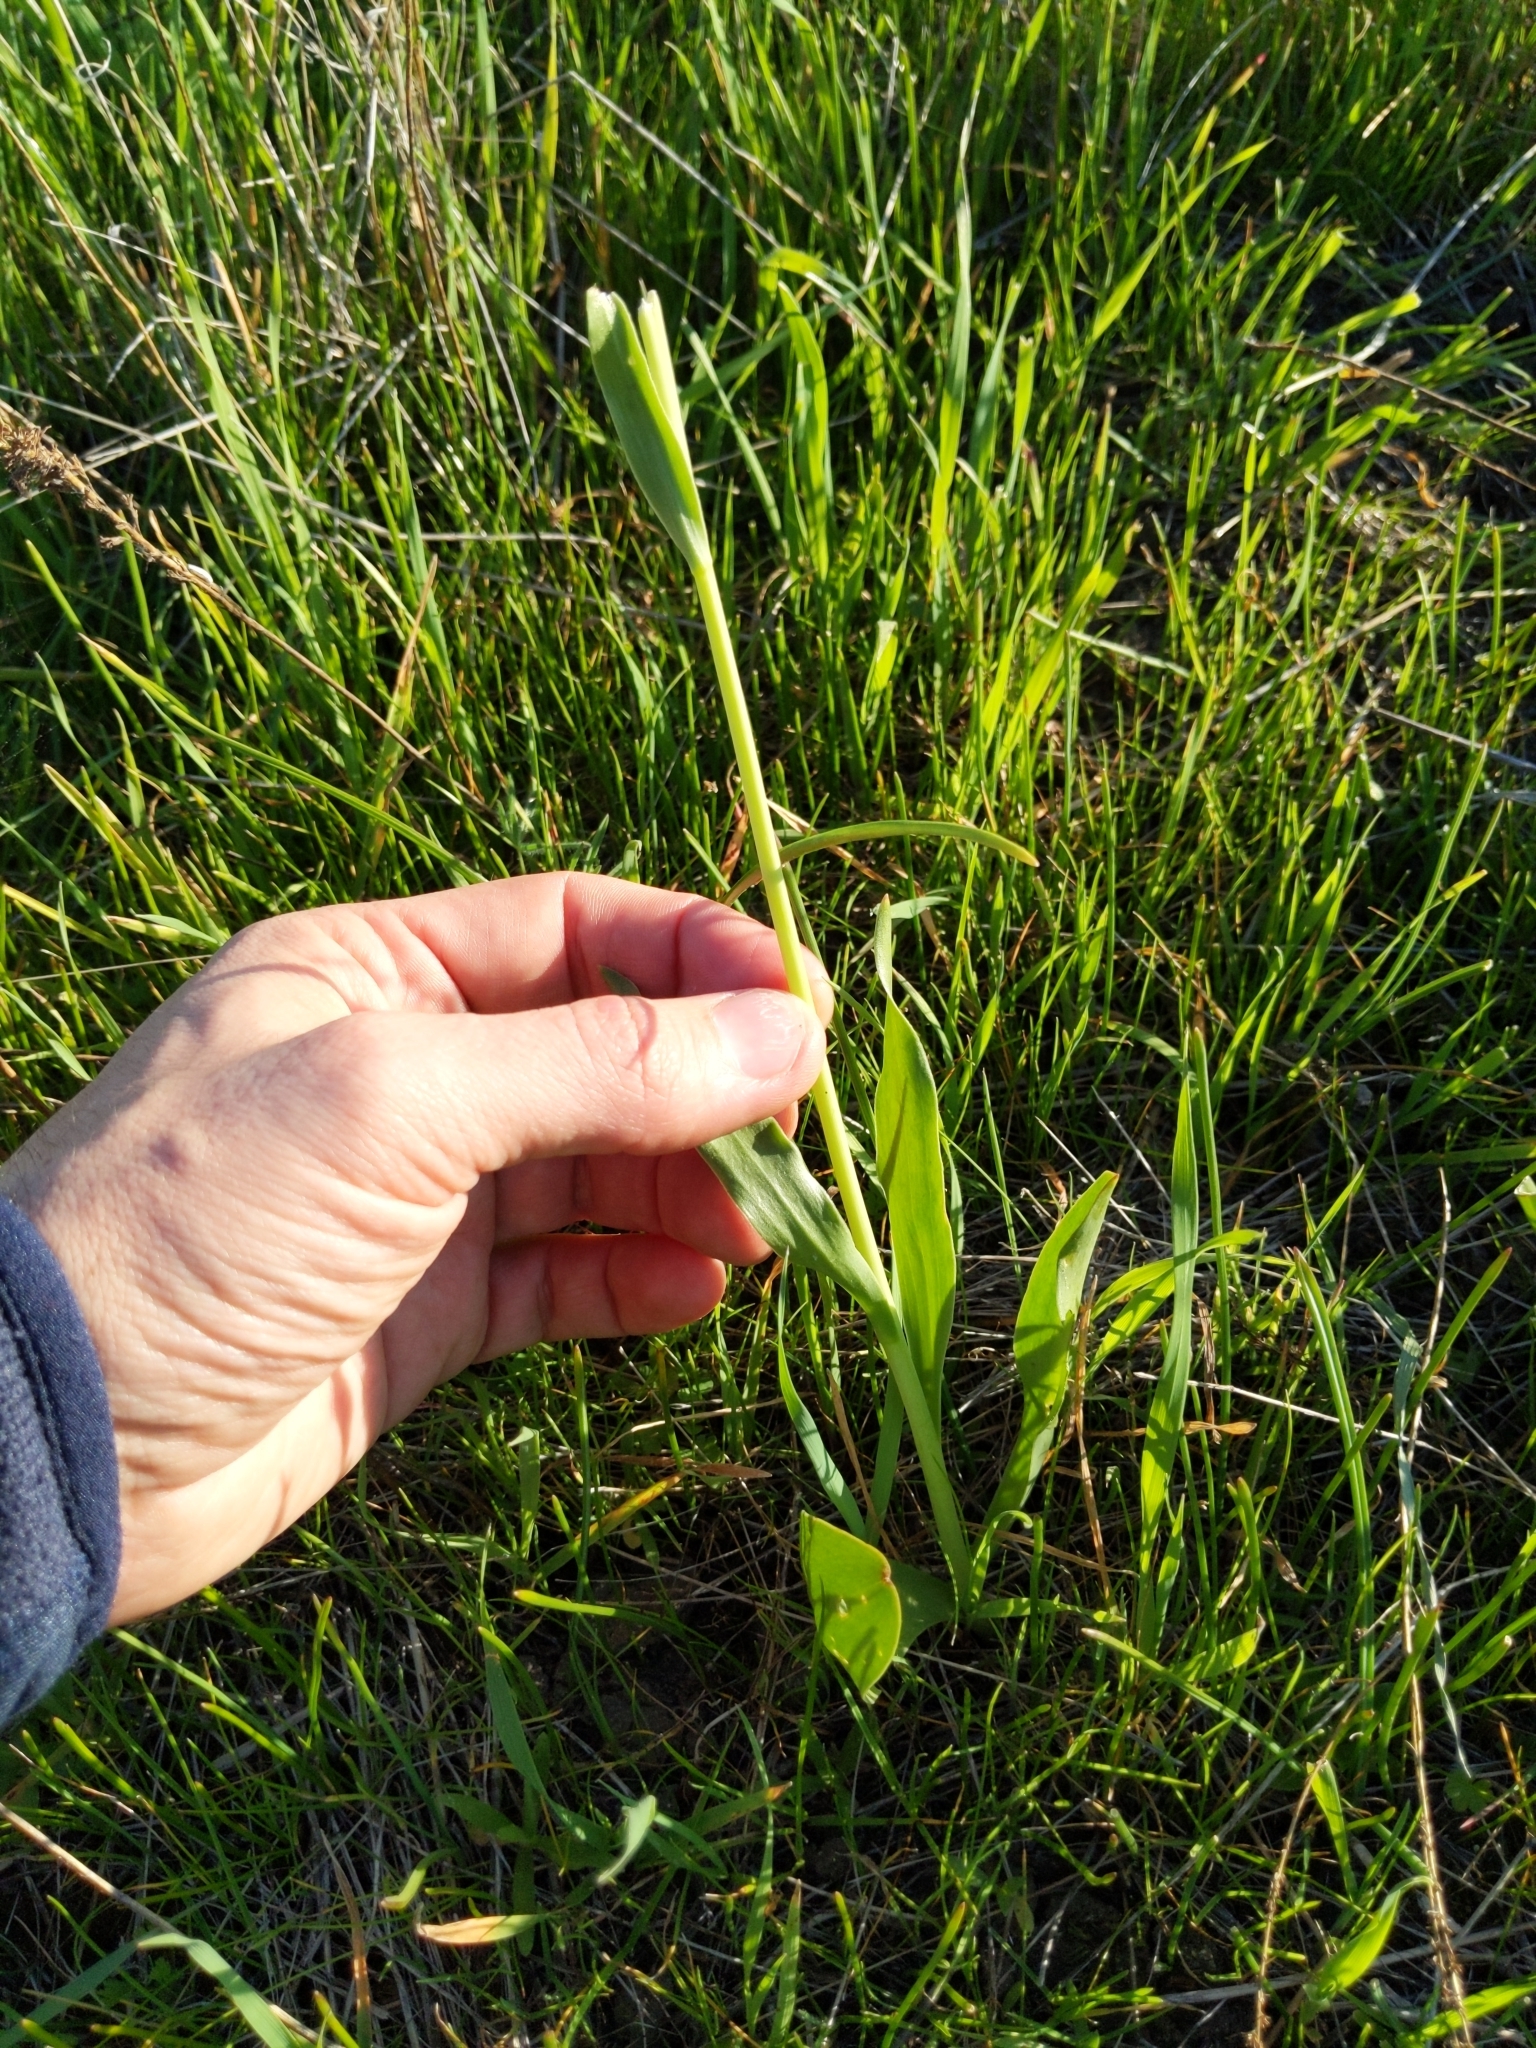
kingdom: Plantae
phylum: Tracheophyta
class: Liliopsida
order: Liliales
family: Liliaceae
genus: Fritillaria
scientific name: Fritillaria agrestis
